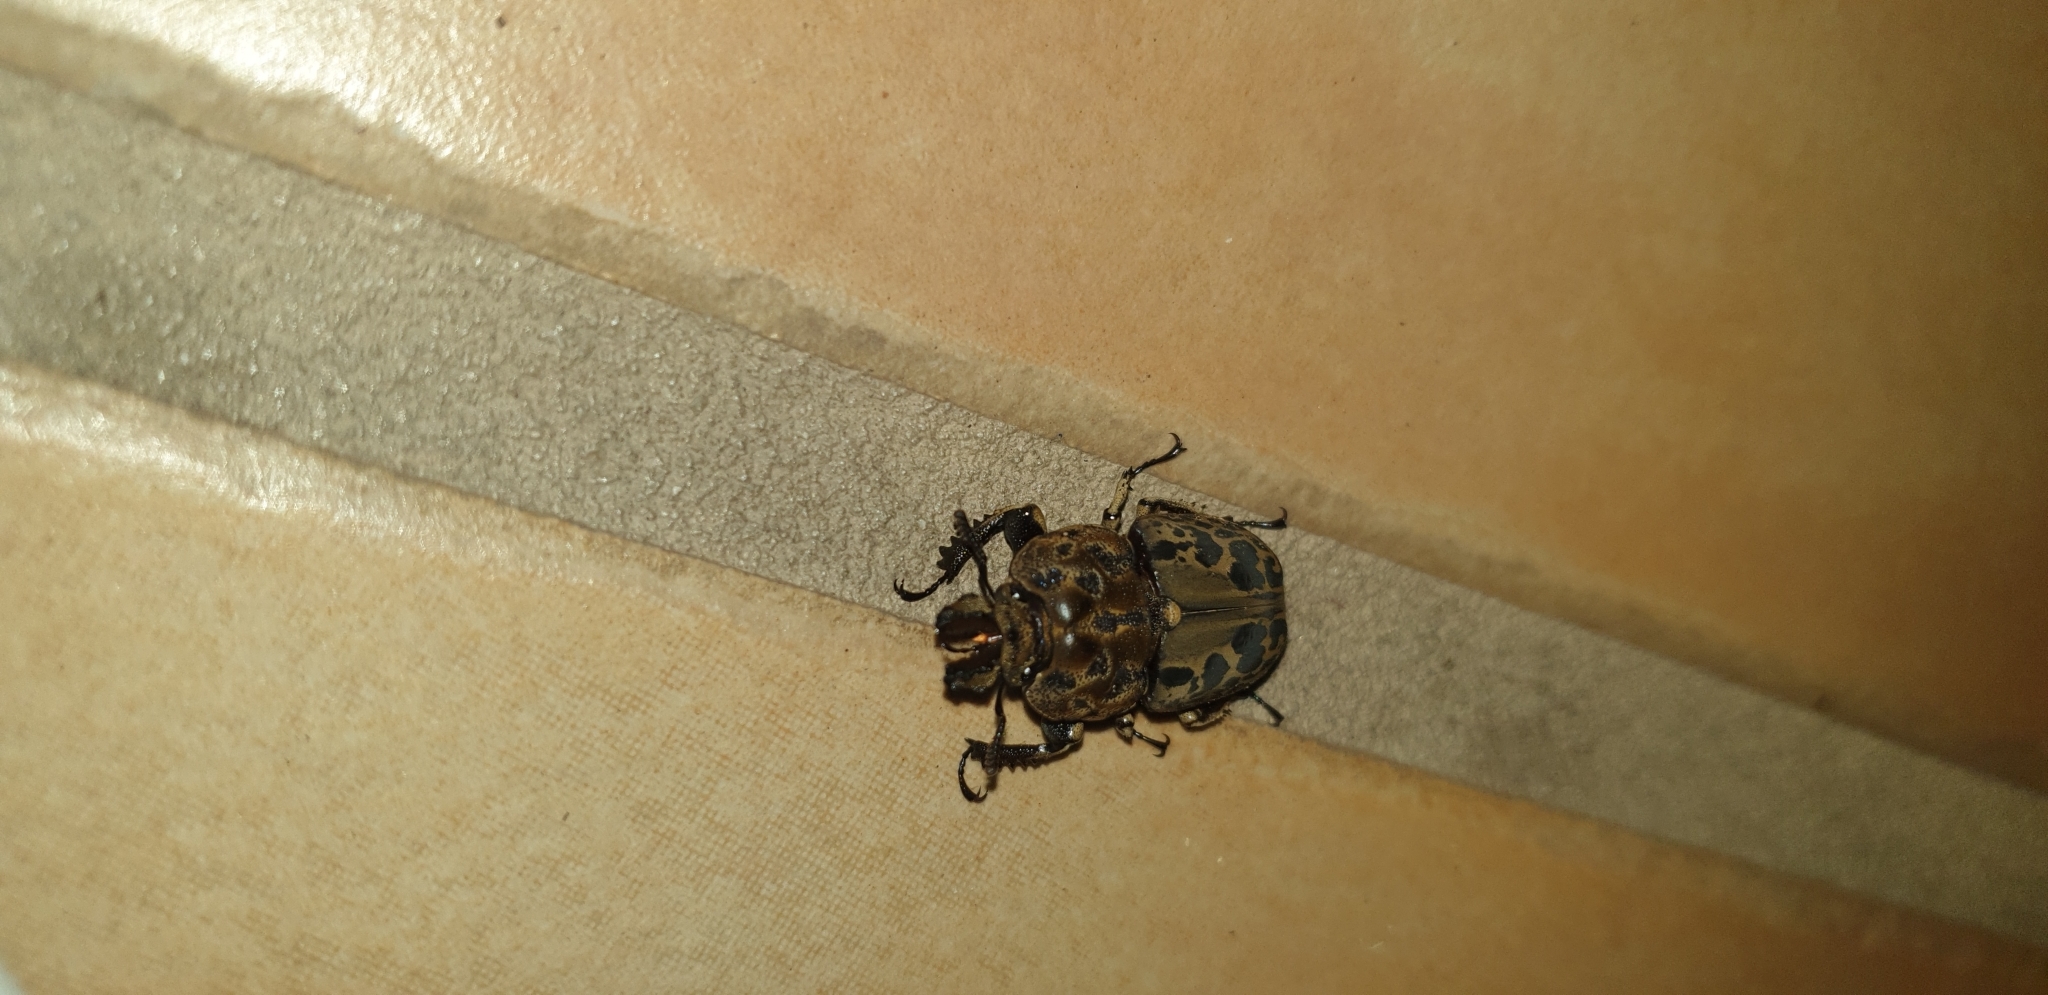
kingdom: Animalia
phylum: Arthropoda
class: Insecta
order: Coleoptera
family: Lucanidae
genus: Ryssonotus
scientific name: Ryssonotus nebulosus
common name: Brown stag beetle
